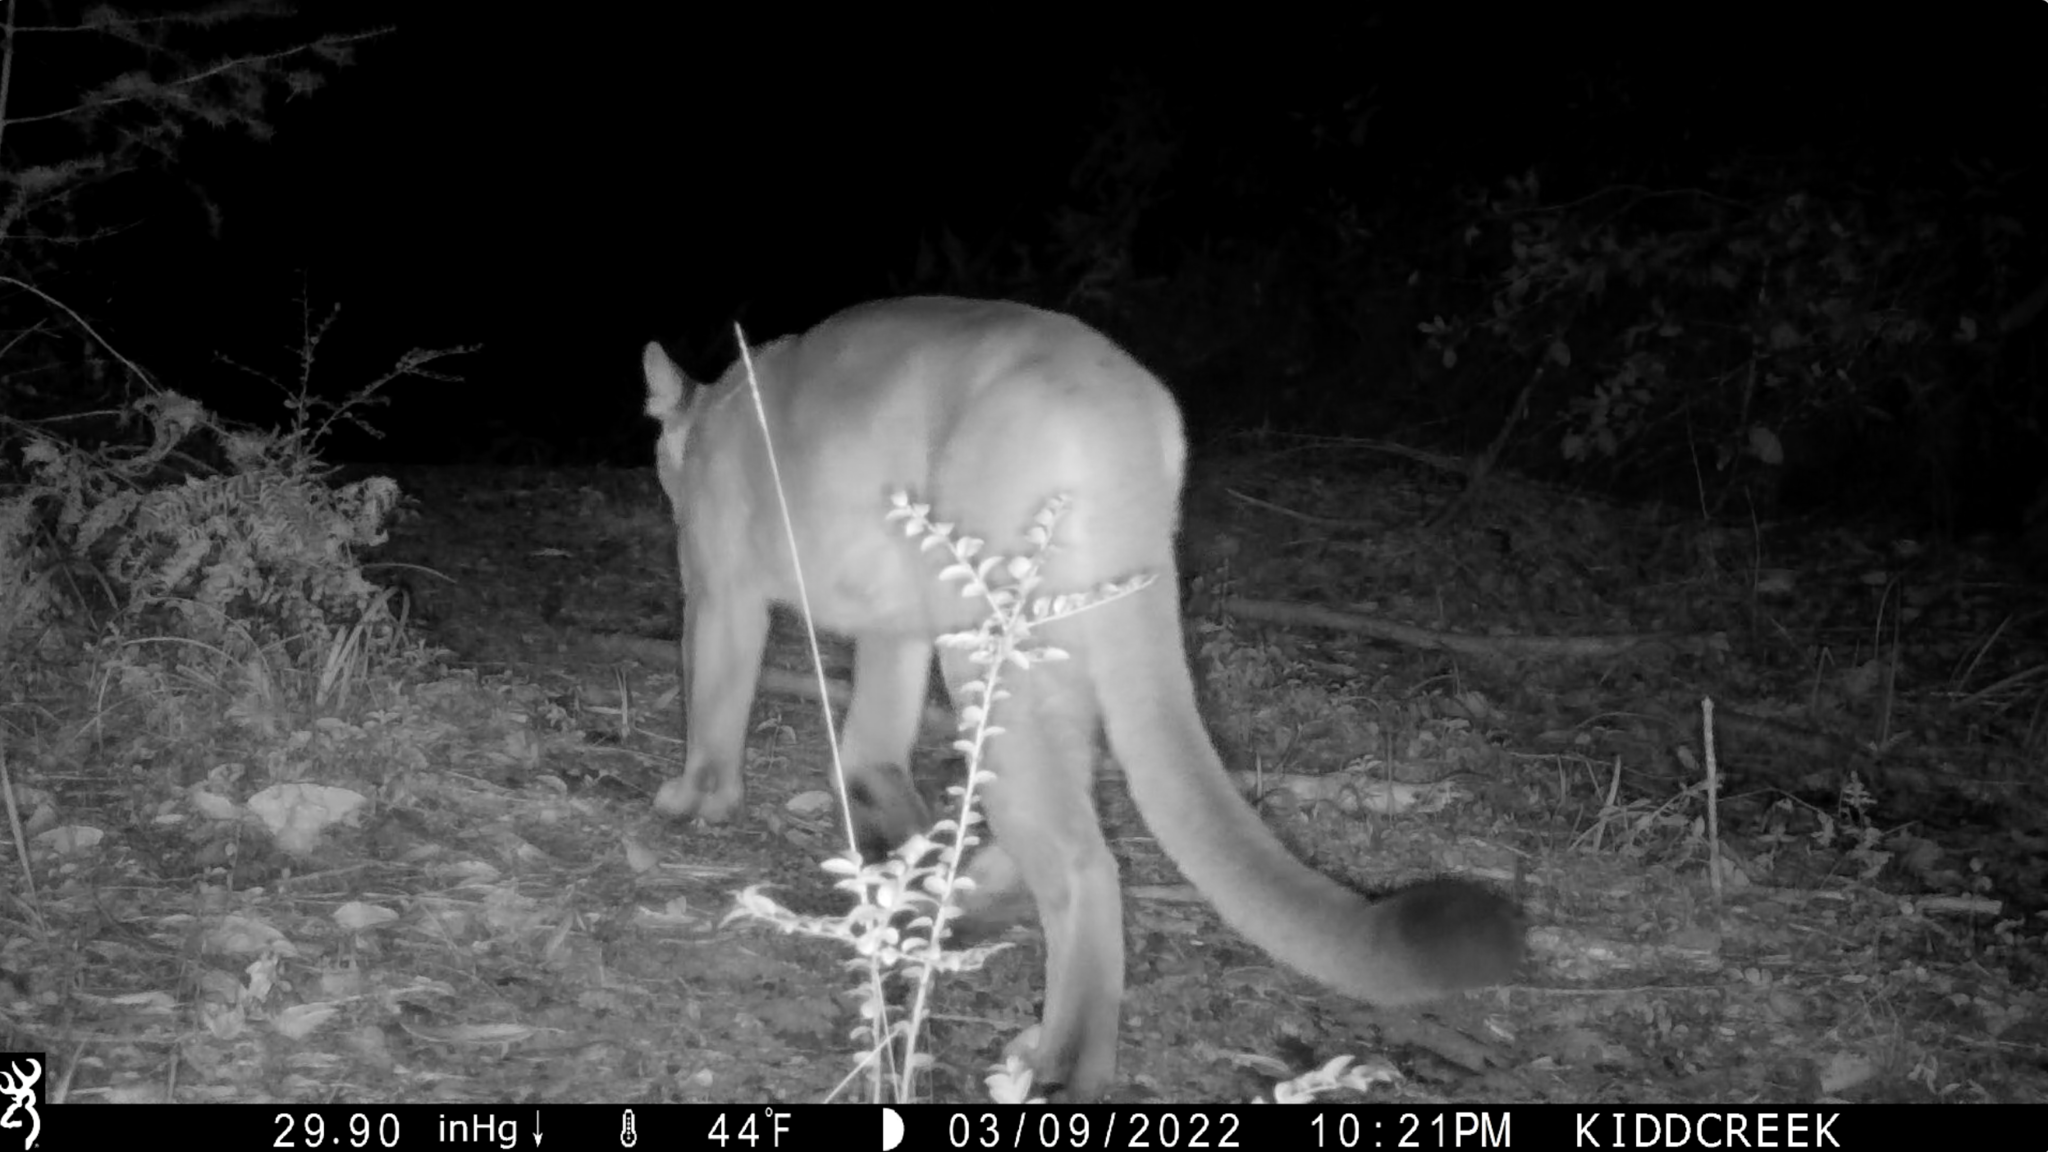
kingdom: Animalia
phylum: Chordata
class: Mammalia
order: Carnivora
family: Felidae
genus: Puma
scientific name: Puma concolor
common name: Puma
